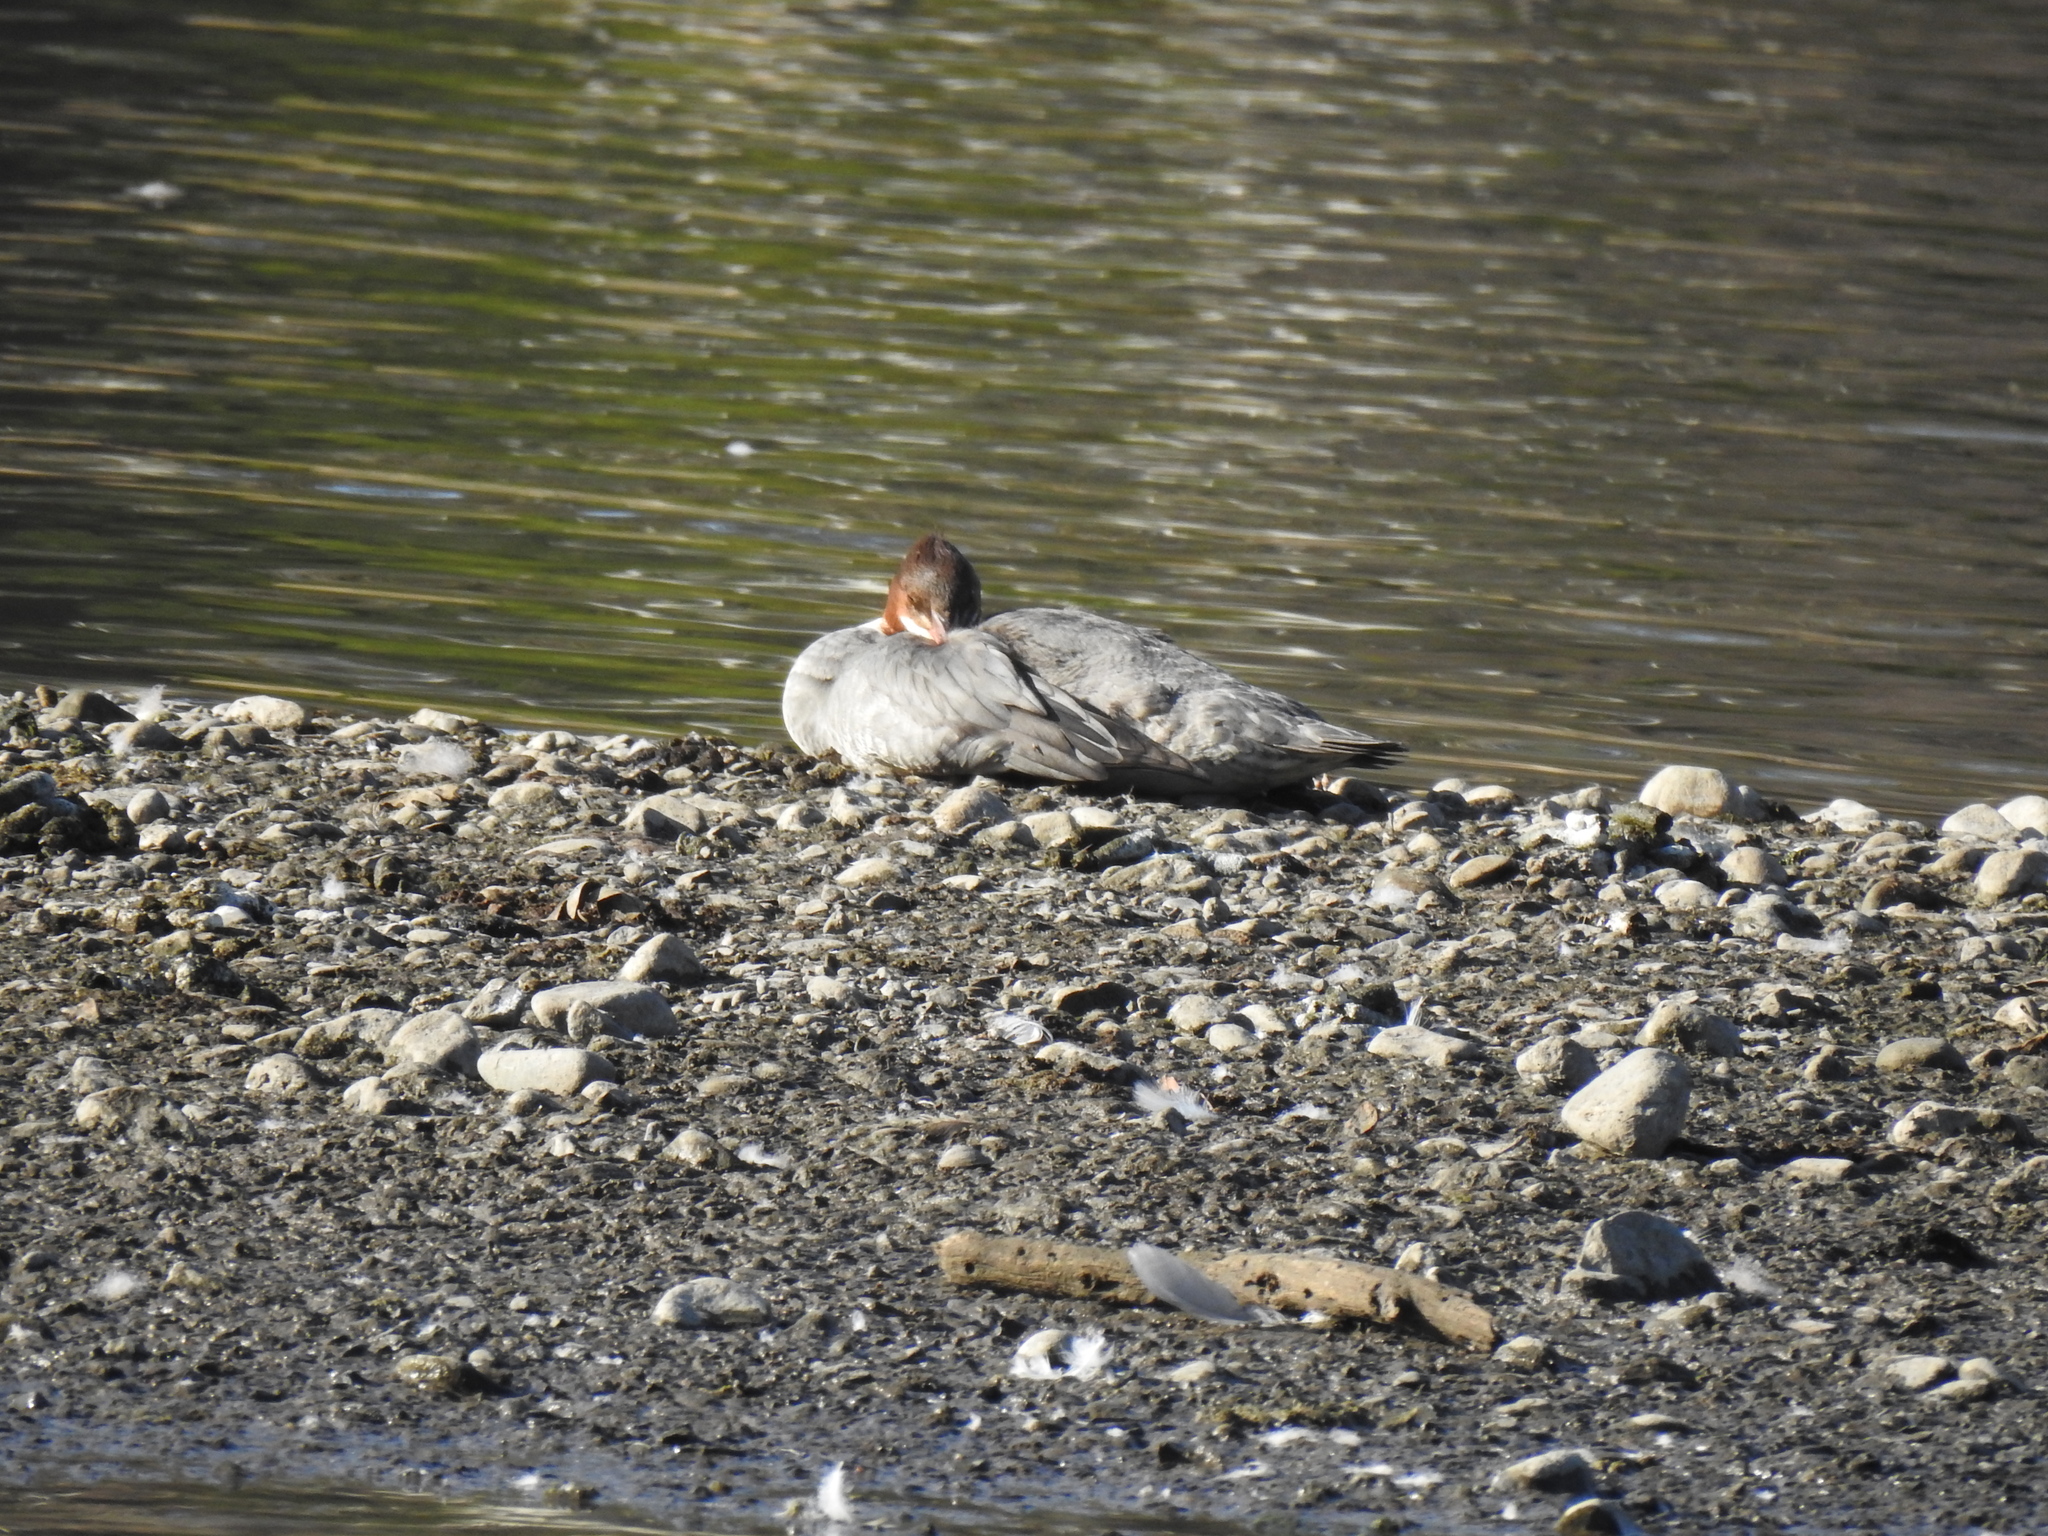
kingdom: Animalia
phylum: Chordata
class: Aves
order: Anseriformes
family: Anatidae
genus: Mergus
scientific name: Mergus merganser
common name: Common merganser
